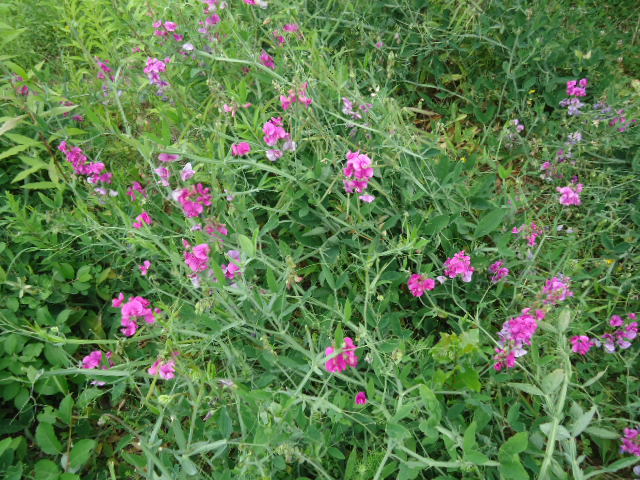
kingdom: Plantae
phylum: Tracheophyta
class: Magnoliopsida
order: Fabales
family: Fabaceae
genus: Lathyrus
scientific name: Lathyrus latifolius
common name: Perennial pea
